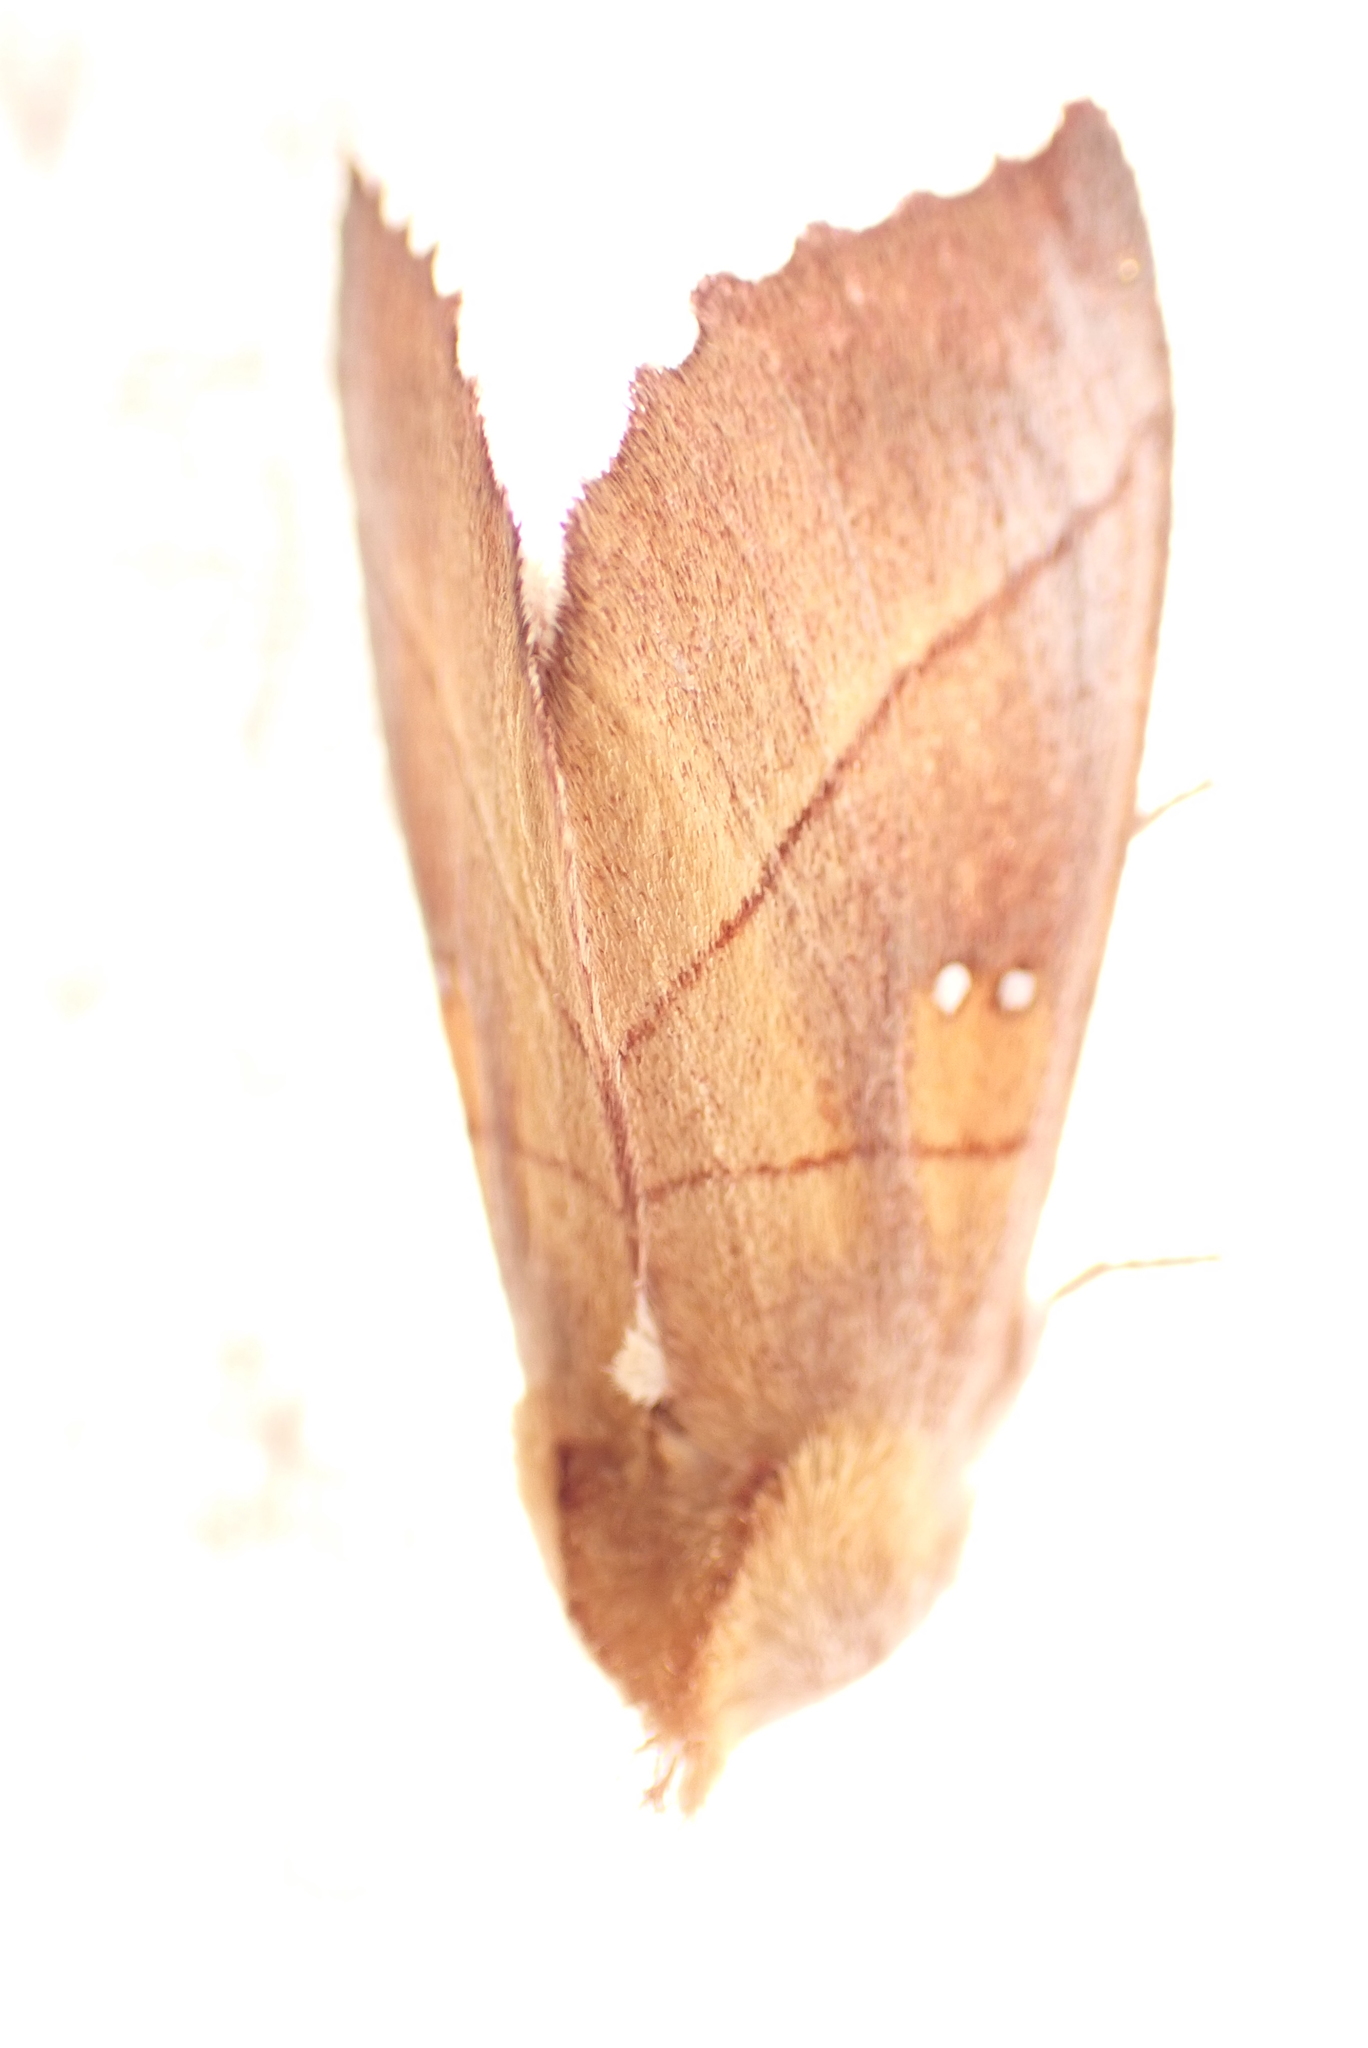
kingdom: Animalia
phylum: Arthropoda
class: Insecta
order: Lepidoptera
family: Notodontidae
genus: Nadata
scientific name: Nadata gibbosa
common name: White-dotted prominent
